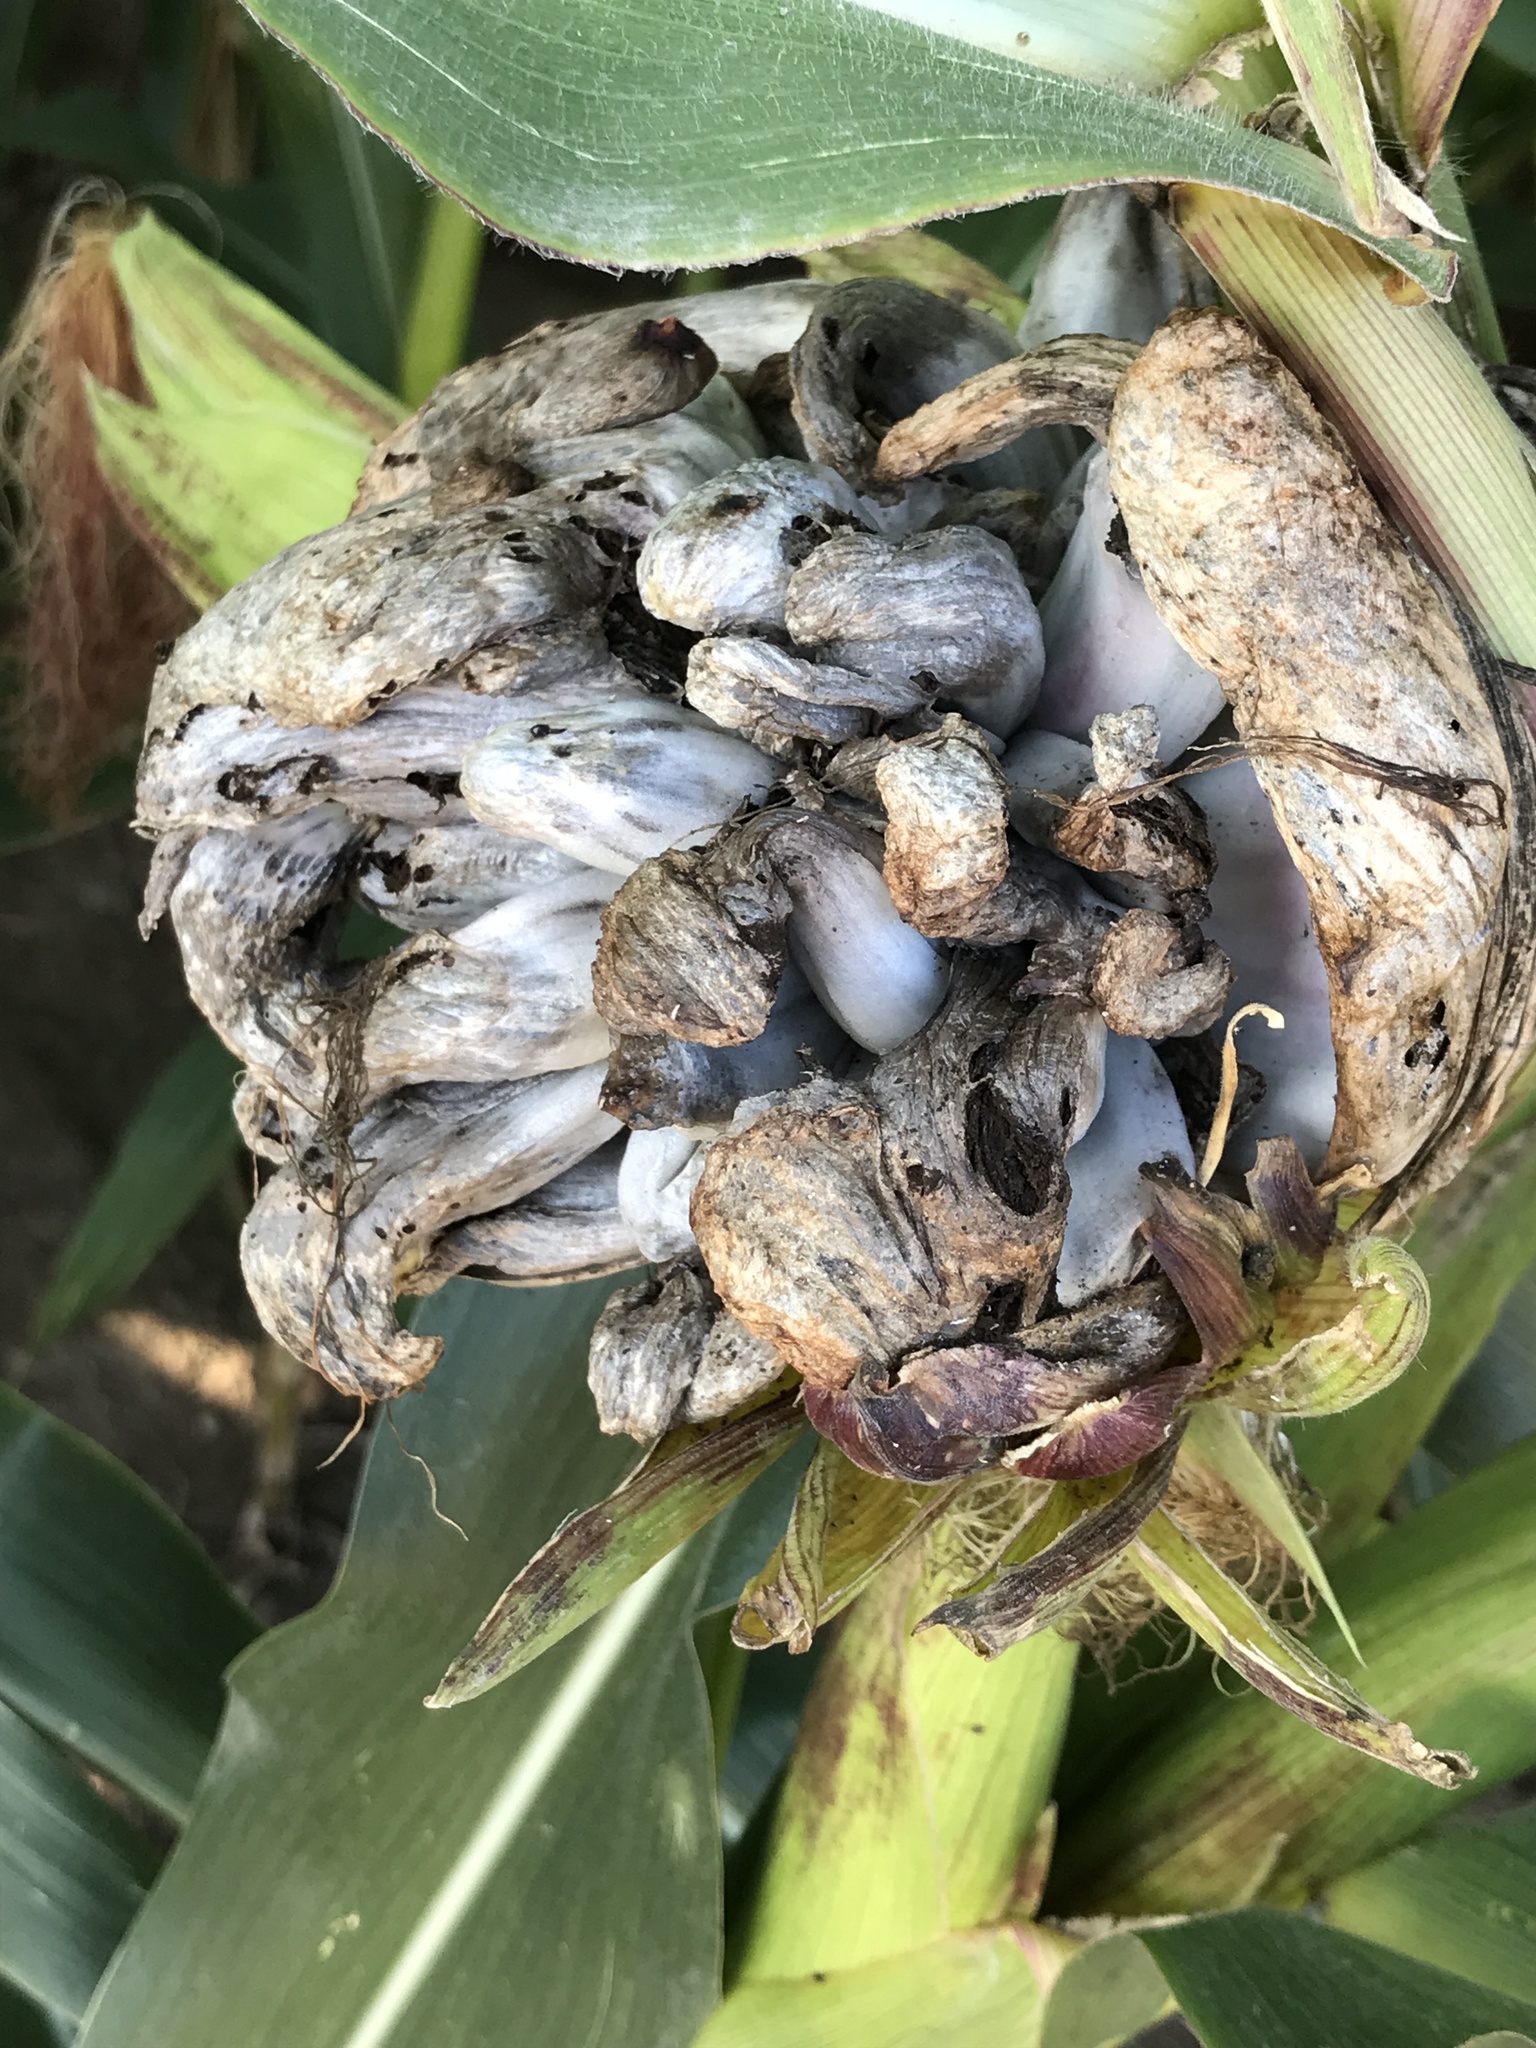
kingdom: Fungi
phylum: Basidiomycota
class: Ustilaginomycetes
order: Ustilaginales
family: Ustilaginaceae
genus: Mycosarcoma
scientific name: Mycosarcoma maydis
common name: Corn smut
